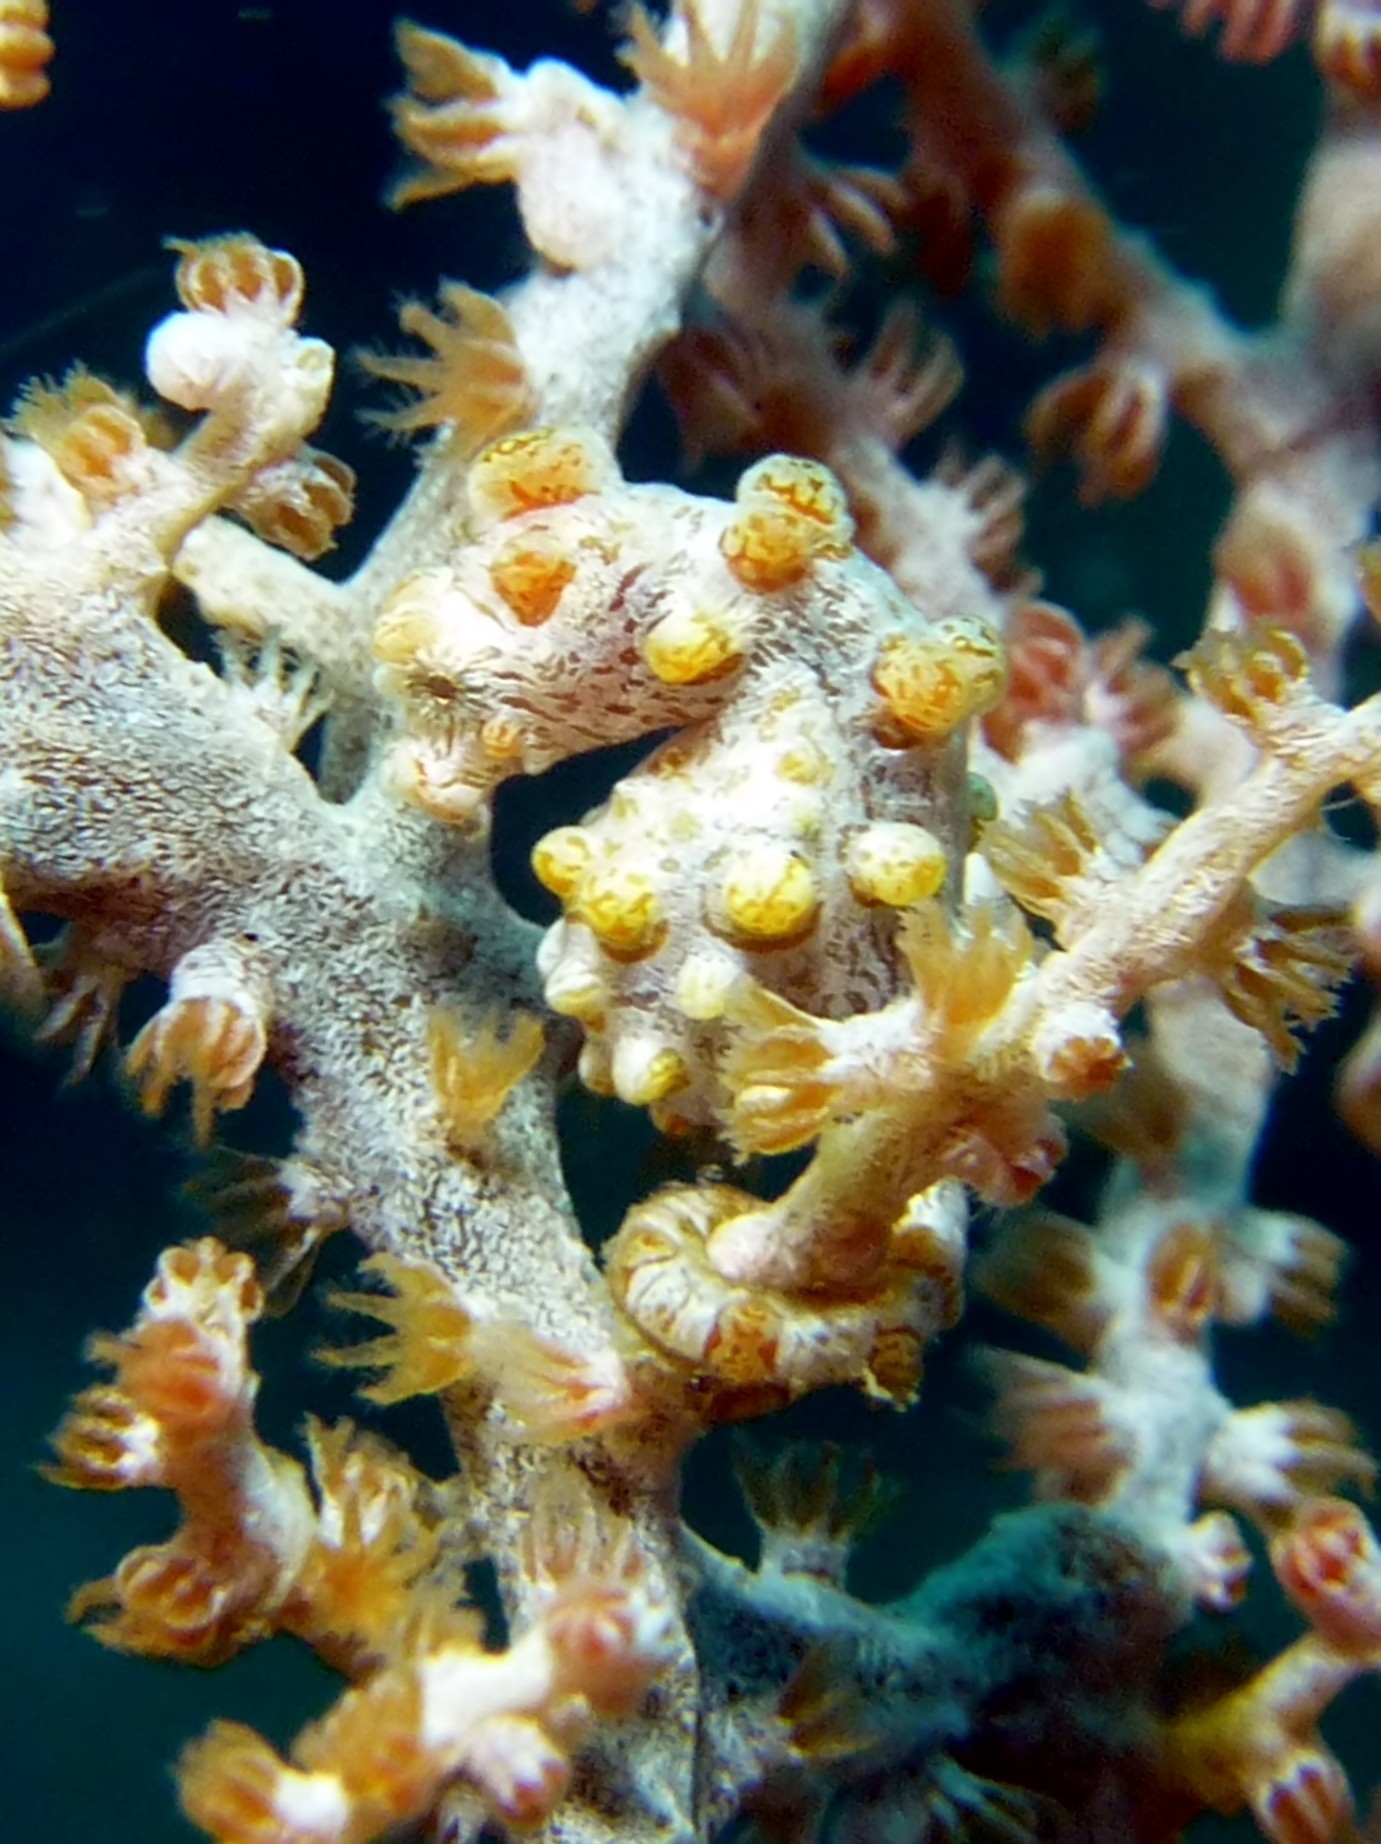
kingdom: Animalia
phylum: Chordata
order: Syngnathiformes
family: Syngnathidae
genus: Hippocampus
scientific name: Hippocampus bargibanti
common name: Bargibant's seahorse
